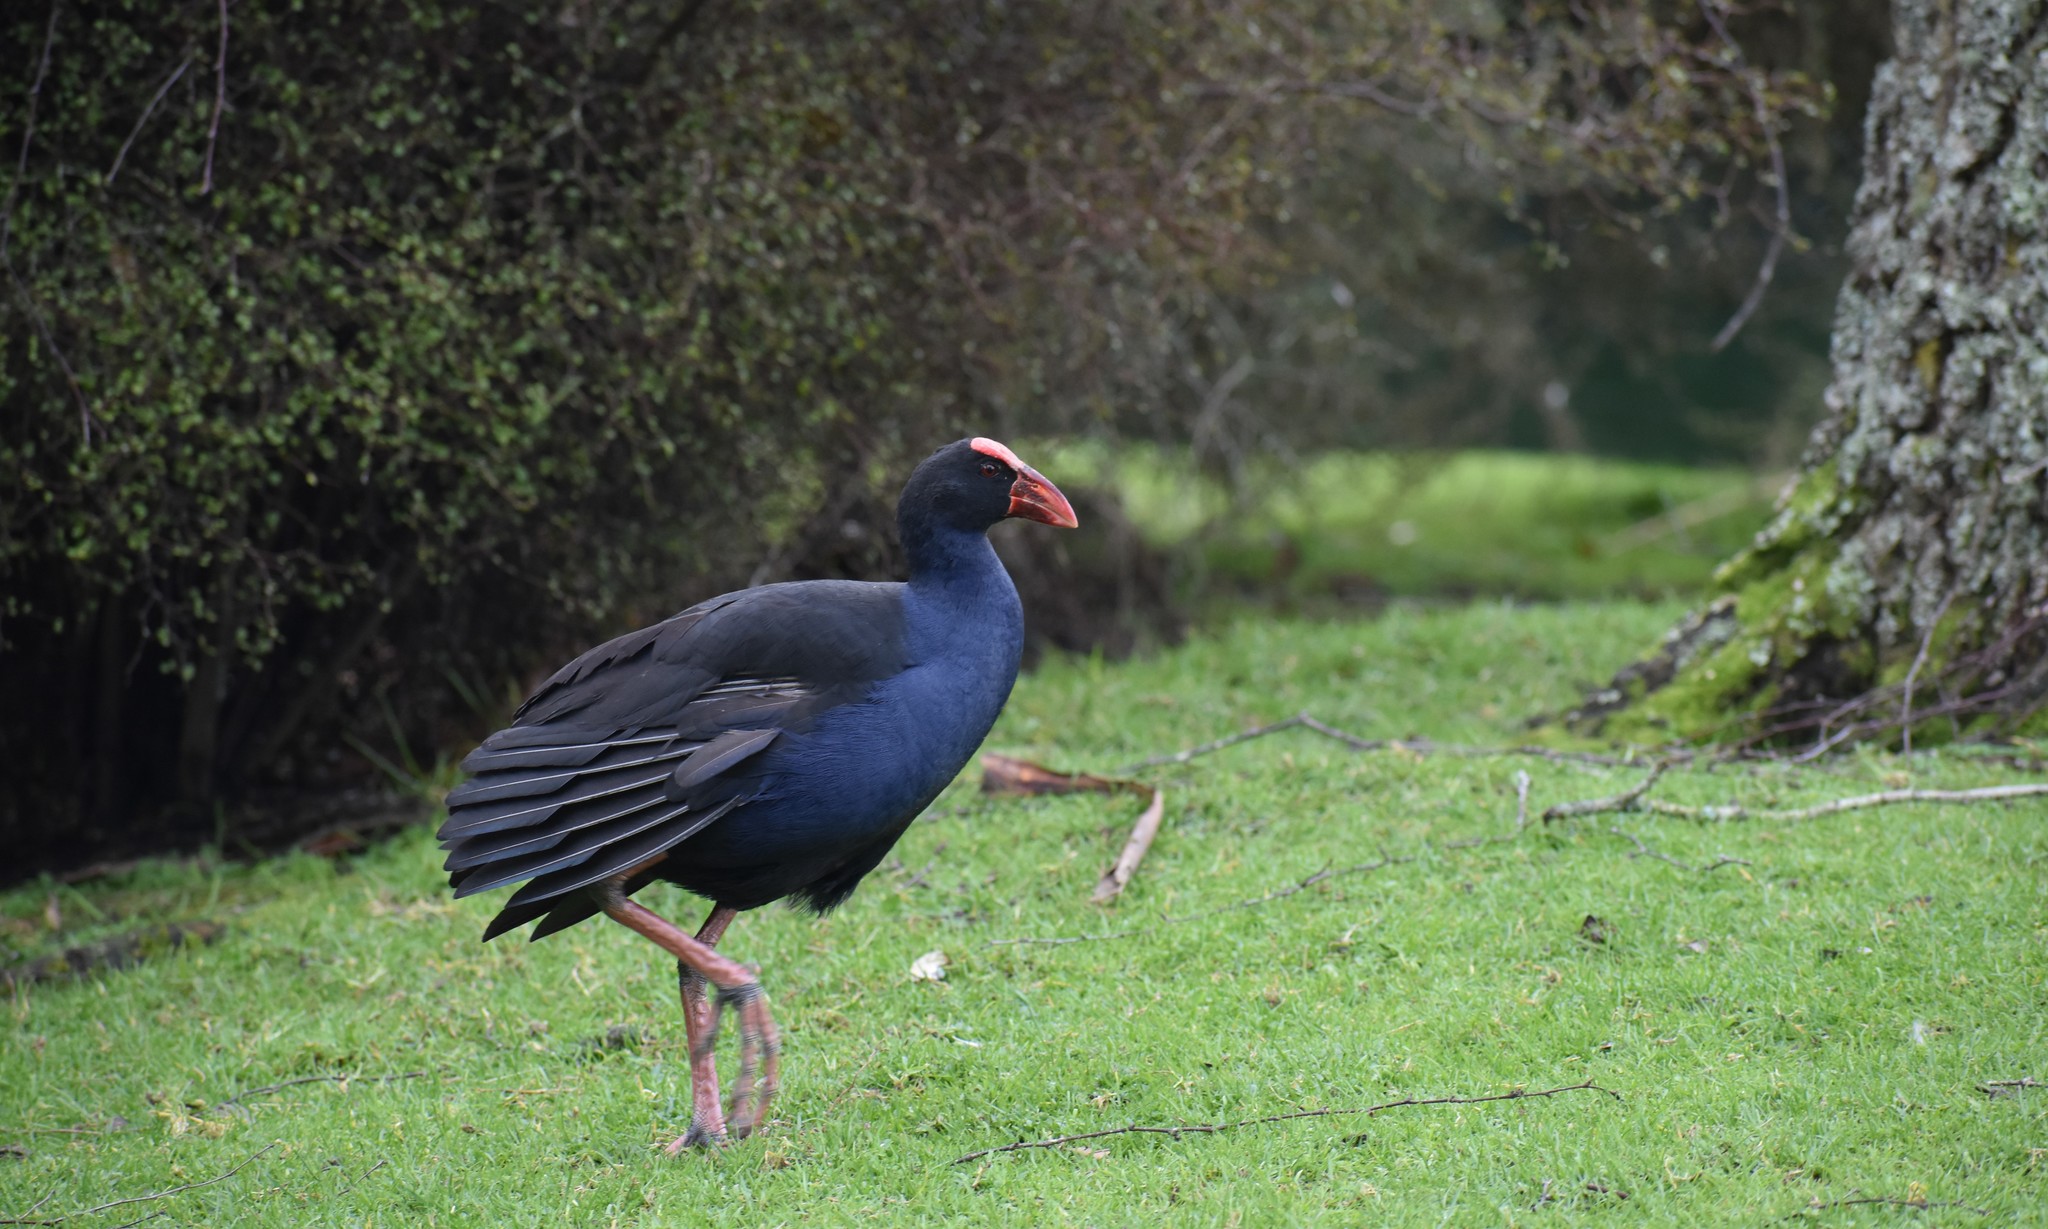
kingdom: Animalia
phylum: Chordata
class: Aves
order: Gruiformes
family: Rallidae
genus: Porphyrio
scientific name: Porphyrio melanotus
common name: Australasian swamphen
